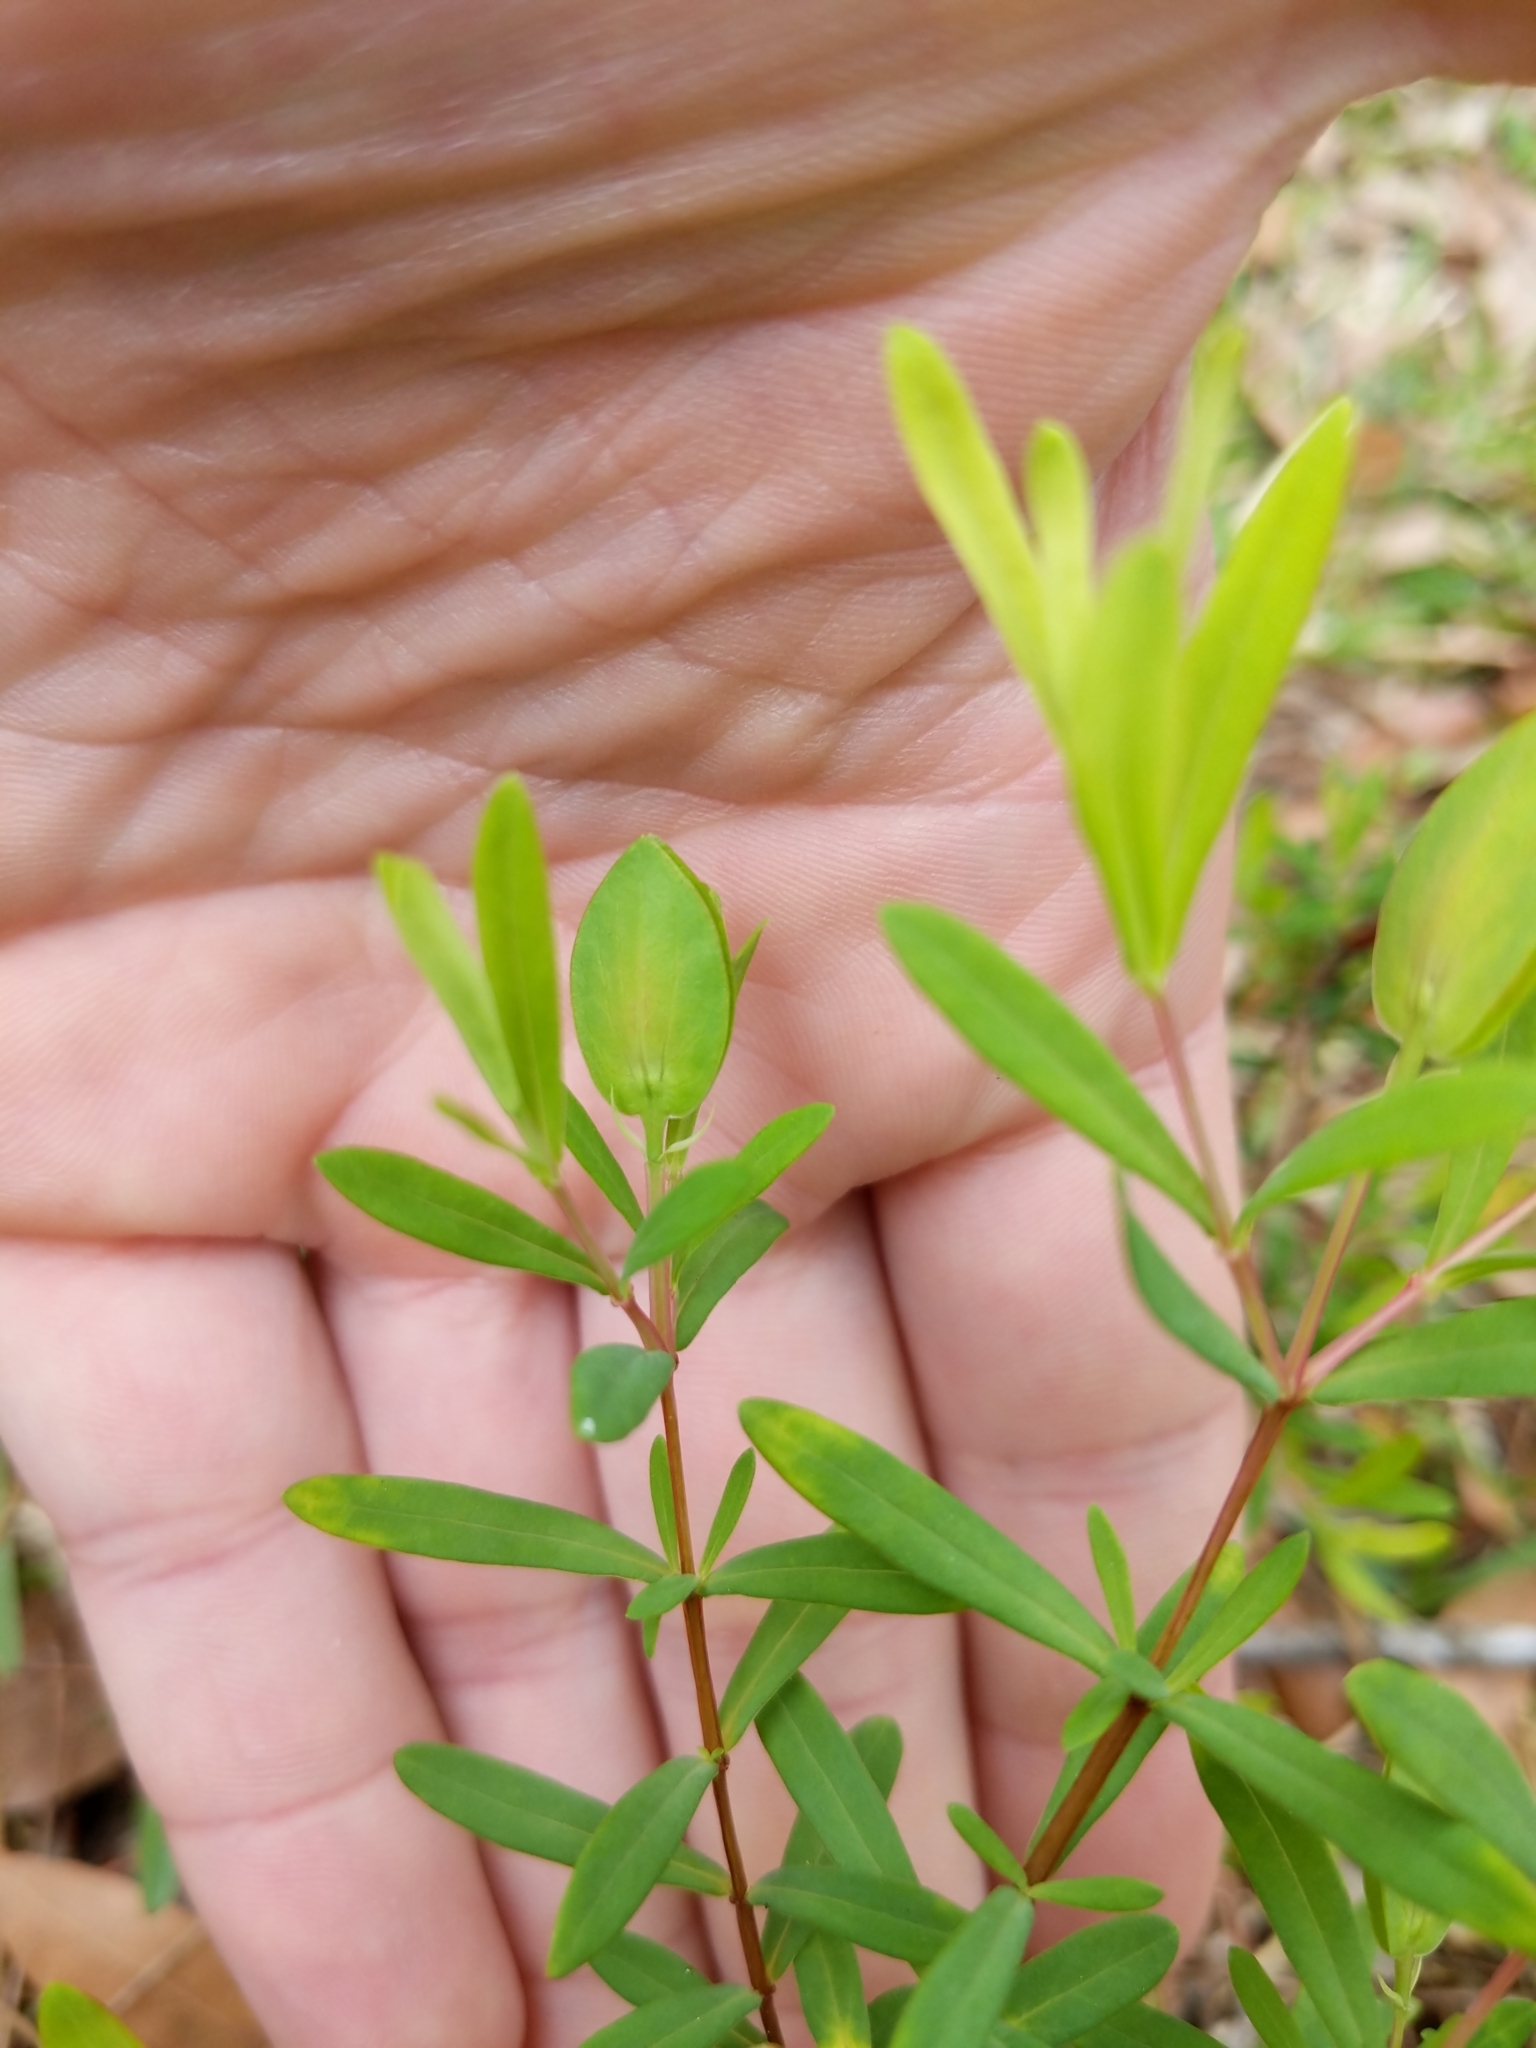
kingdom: Plantae
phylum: Tracheophyta
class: Magnoliopsida
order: Malpighiales
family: Hypericaceae
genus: Hypericum
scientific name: Hypericum hypericoides
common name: St. andrew's cross
